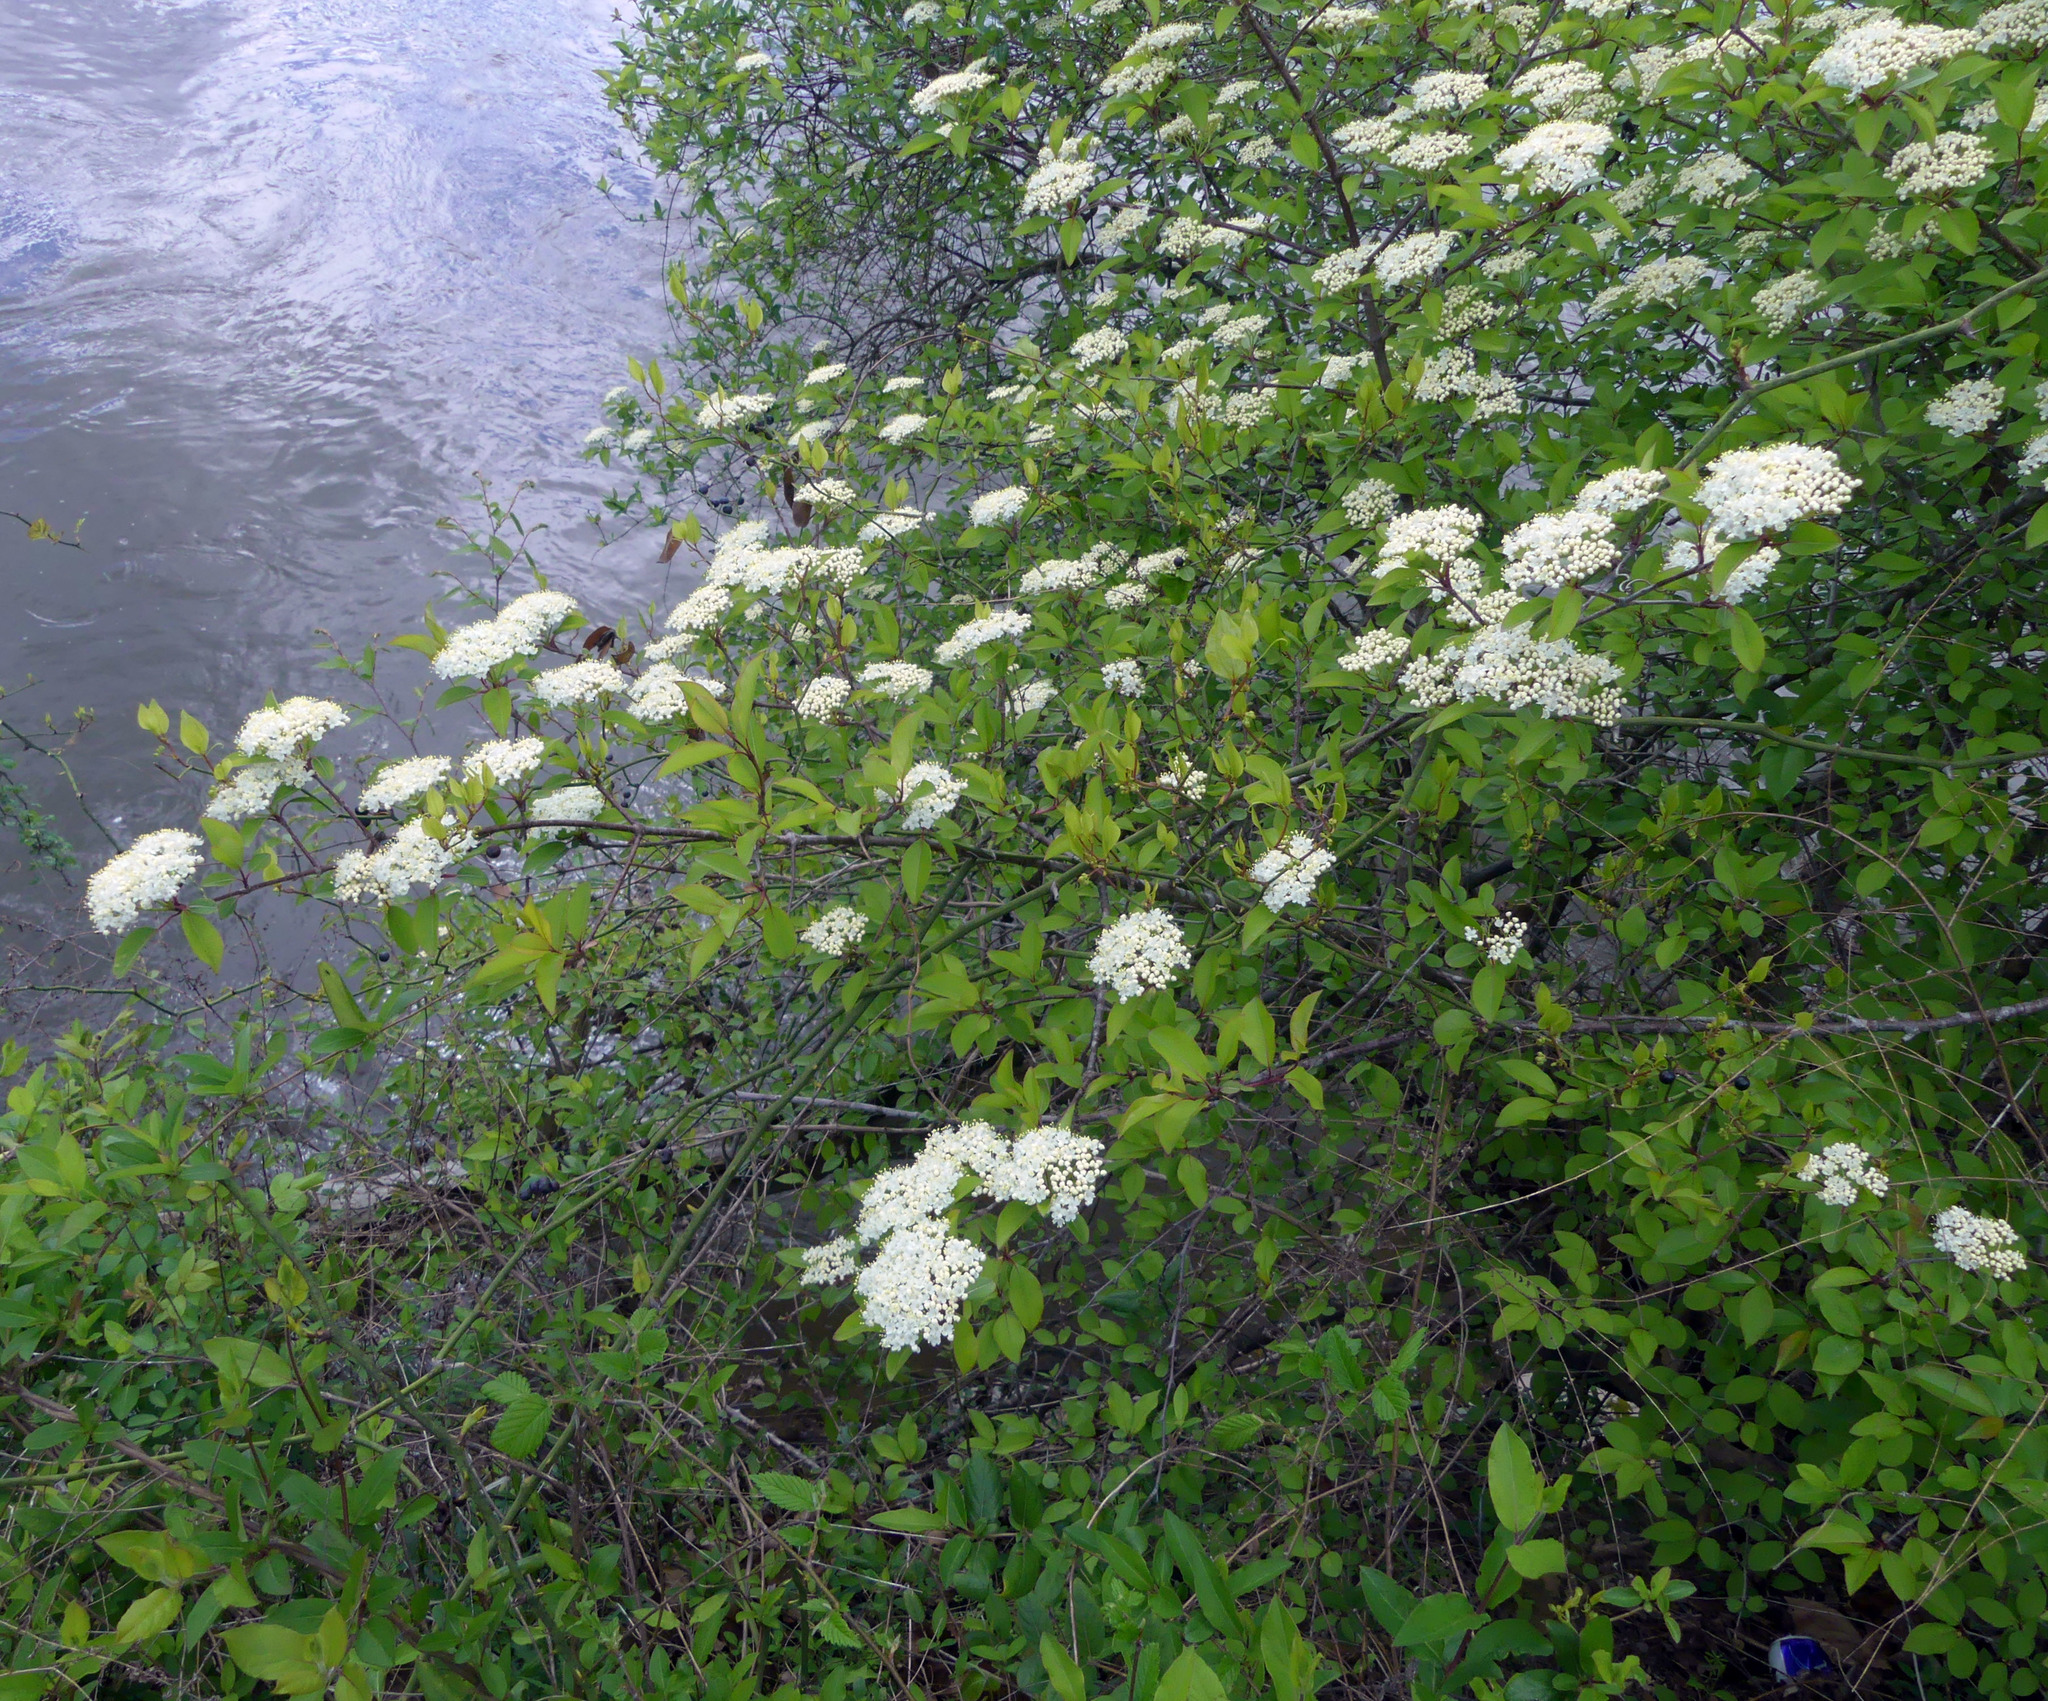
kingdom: Plantae
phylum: Tracheophyta
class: Magnoliopsida
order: Dipsacales
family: Viburnaceae
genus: Viburnum
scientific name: Viburnum prunifolium
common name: Black haw
